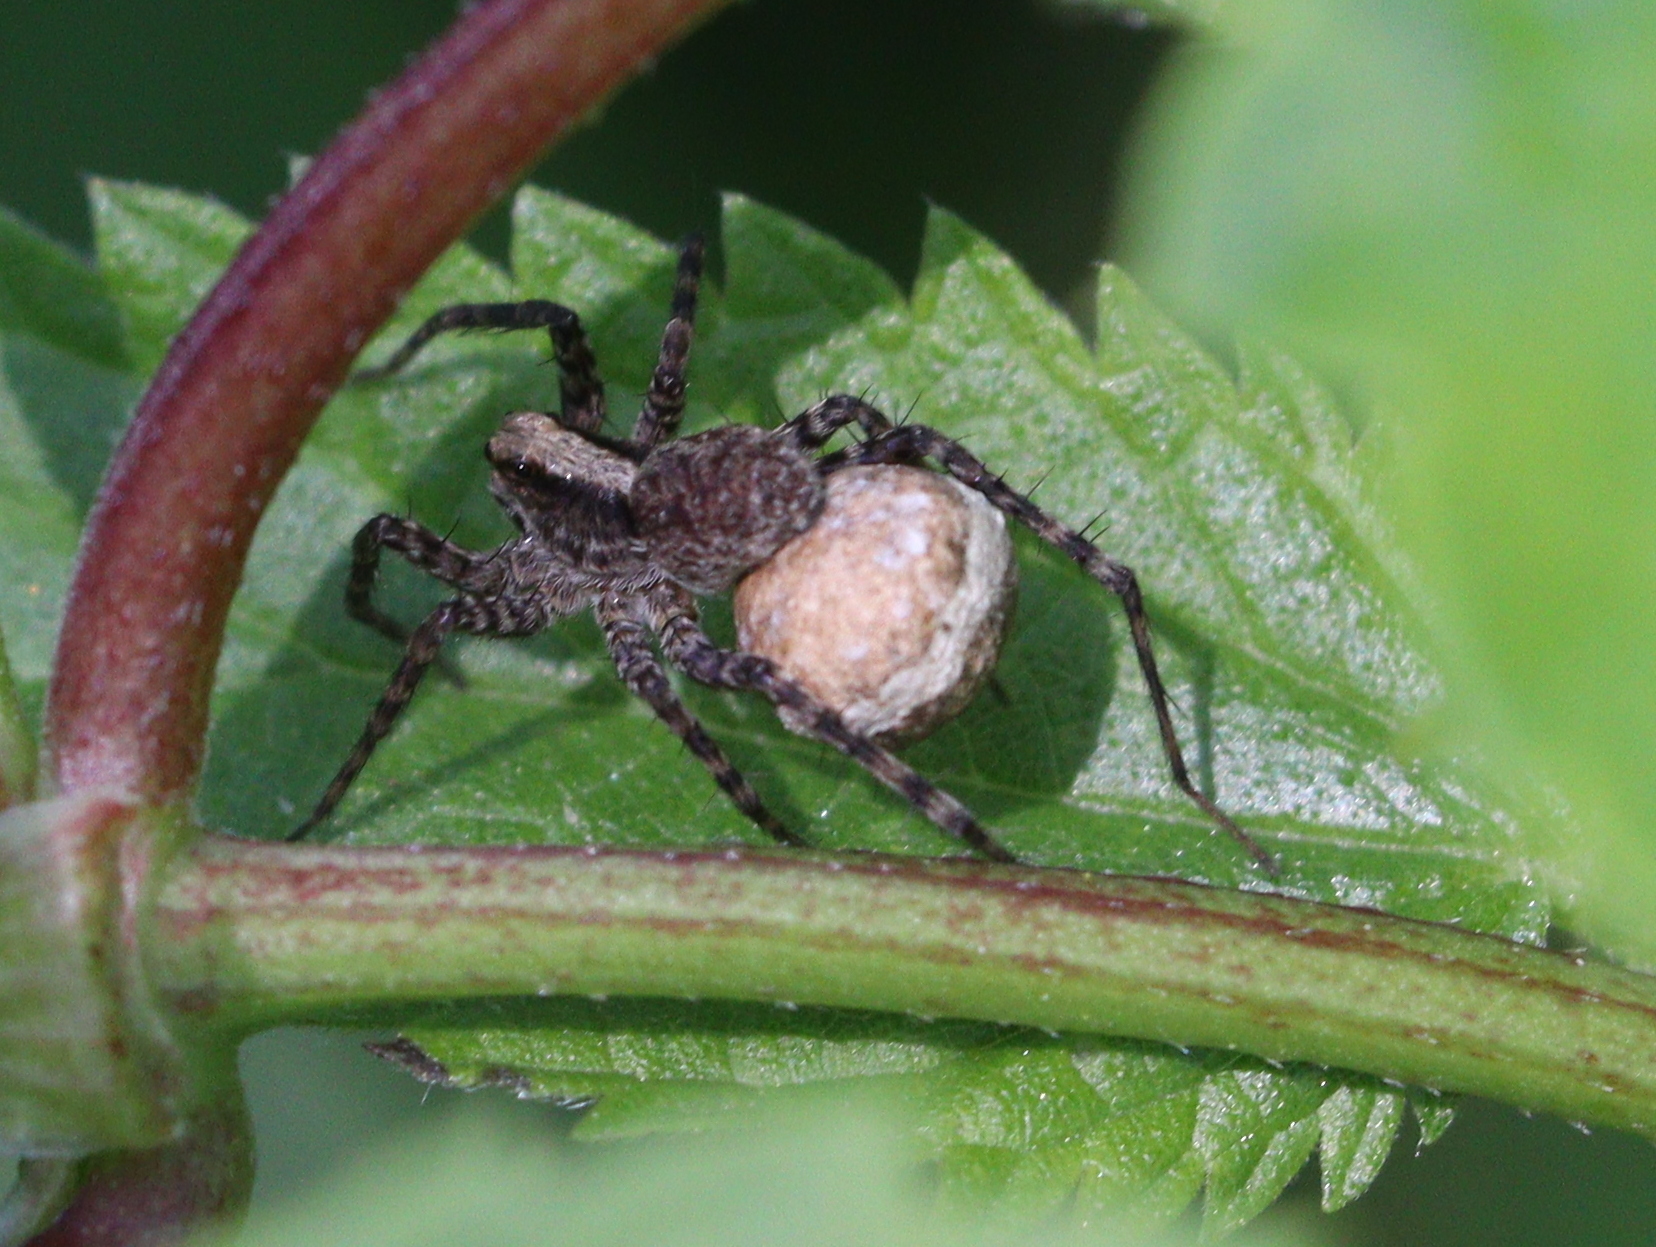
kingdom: Animalia
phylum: Arthropoda
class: Arachnida
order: Araneae
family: Lycosidae
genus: Pardosa
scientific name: Pardosa
